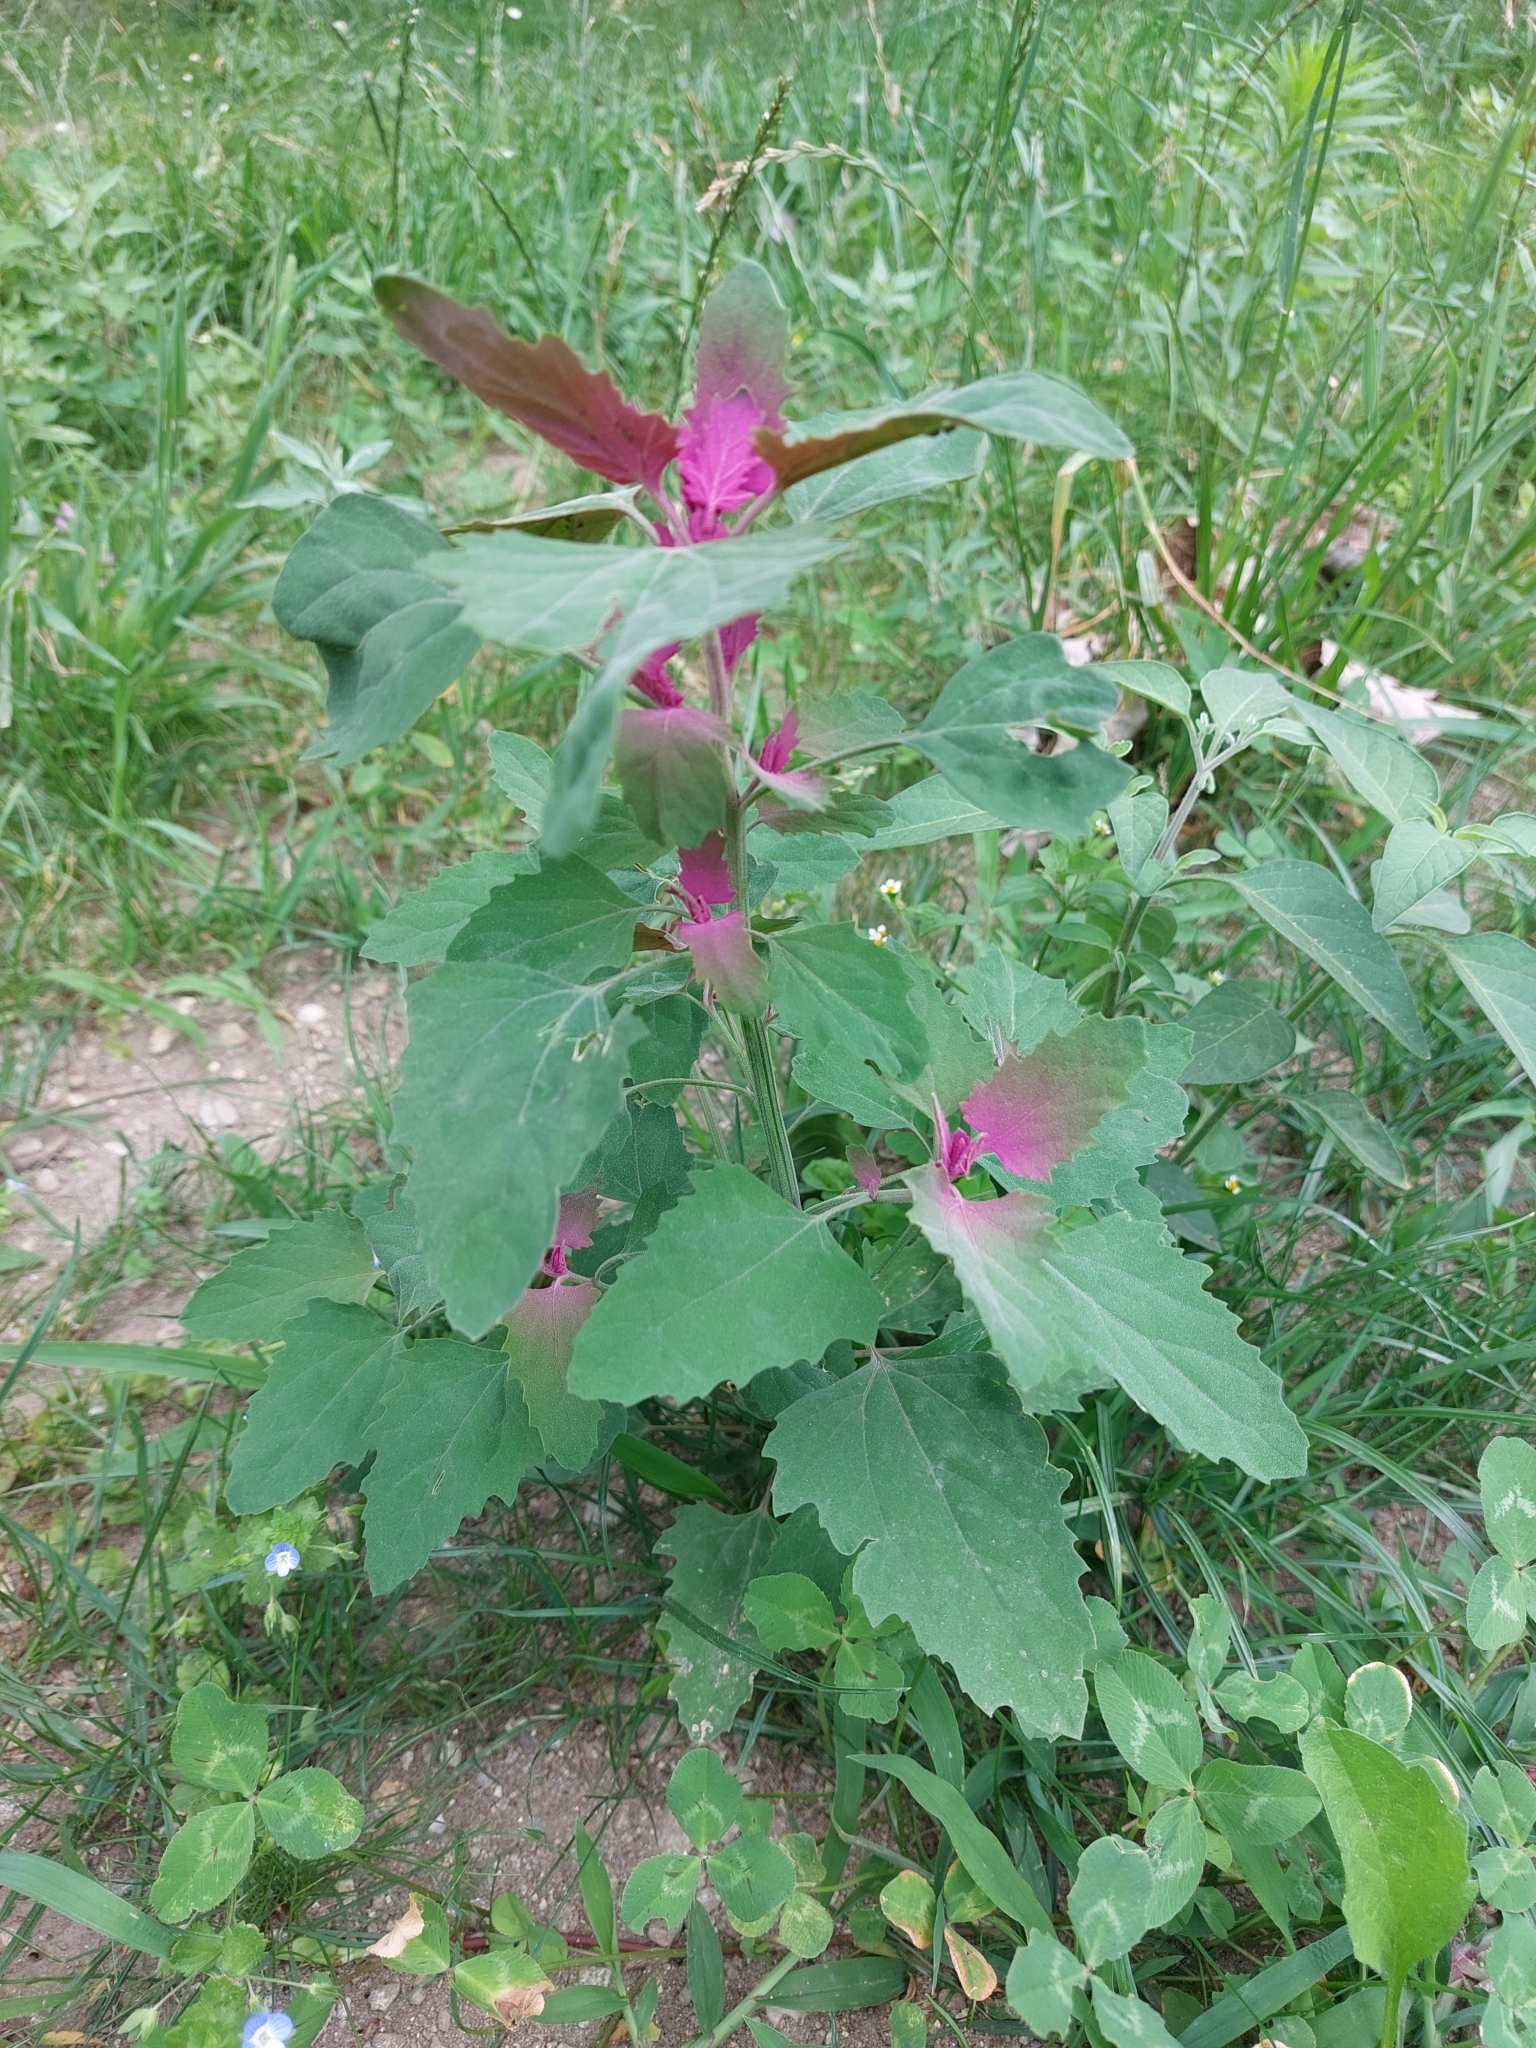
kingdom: Plantae
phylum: Tracheophyta
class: Magnoliopsida
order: Caryophyllales
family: Amaranthaceae
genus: Chenopodium
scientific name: Chenopodium giganteum
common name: Magentaspreen
